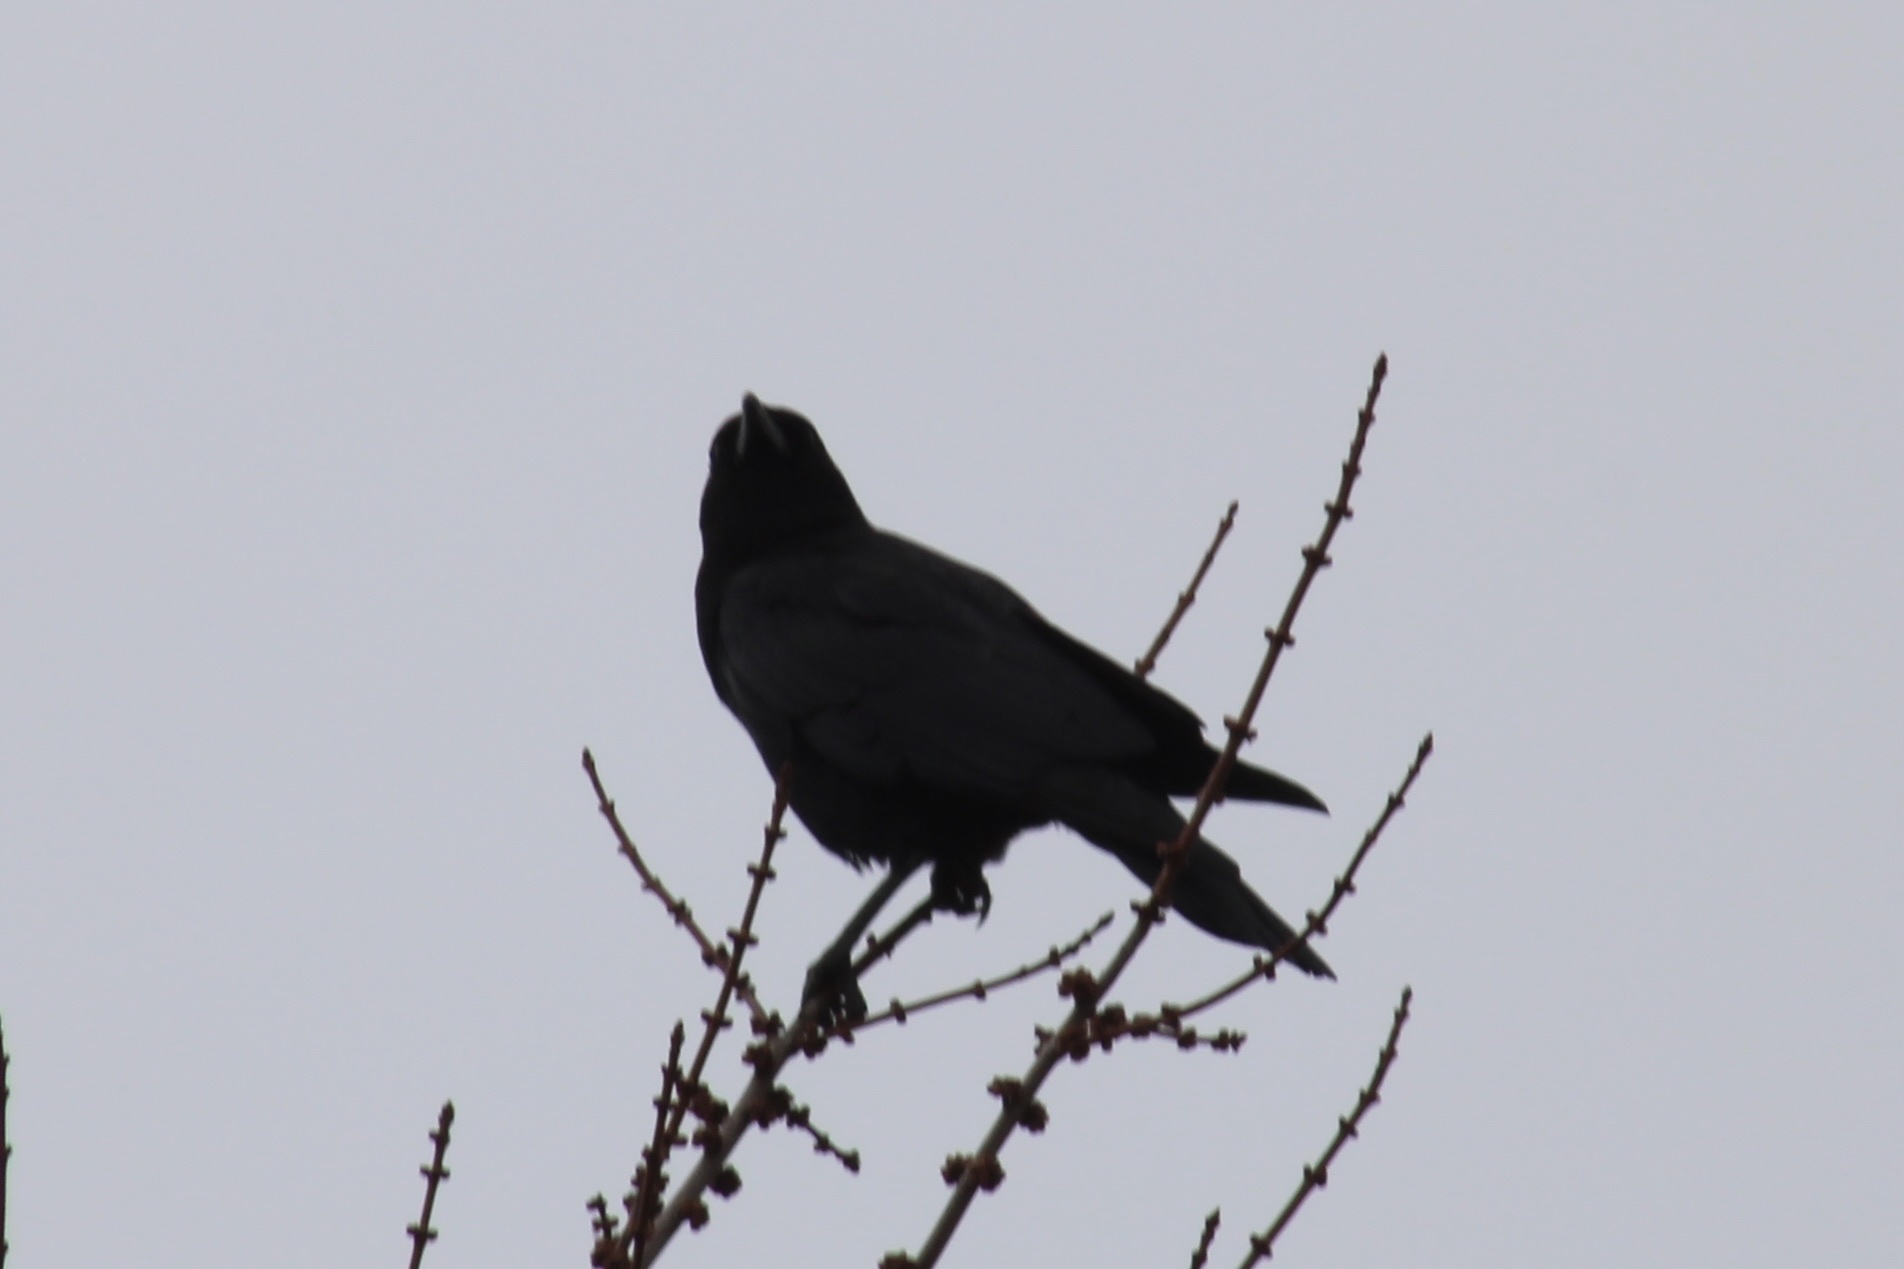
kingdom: Animalia
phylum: Chordata
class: Aves
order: Passeriformes
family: Corvidae
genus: Corvus
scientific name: Corvus brachyrhynchos
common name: American crow
